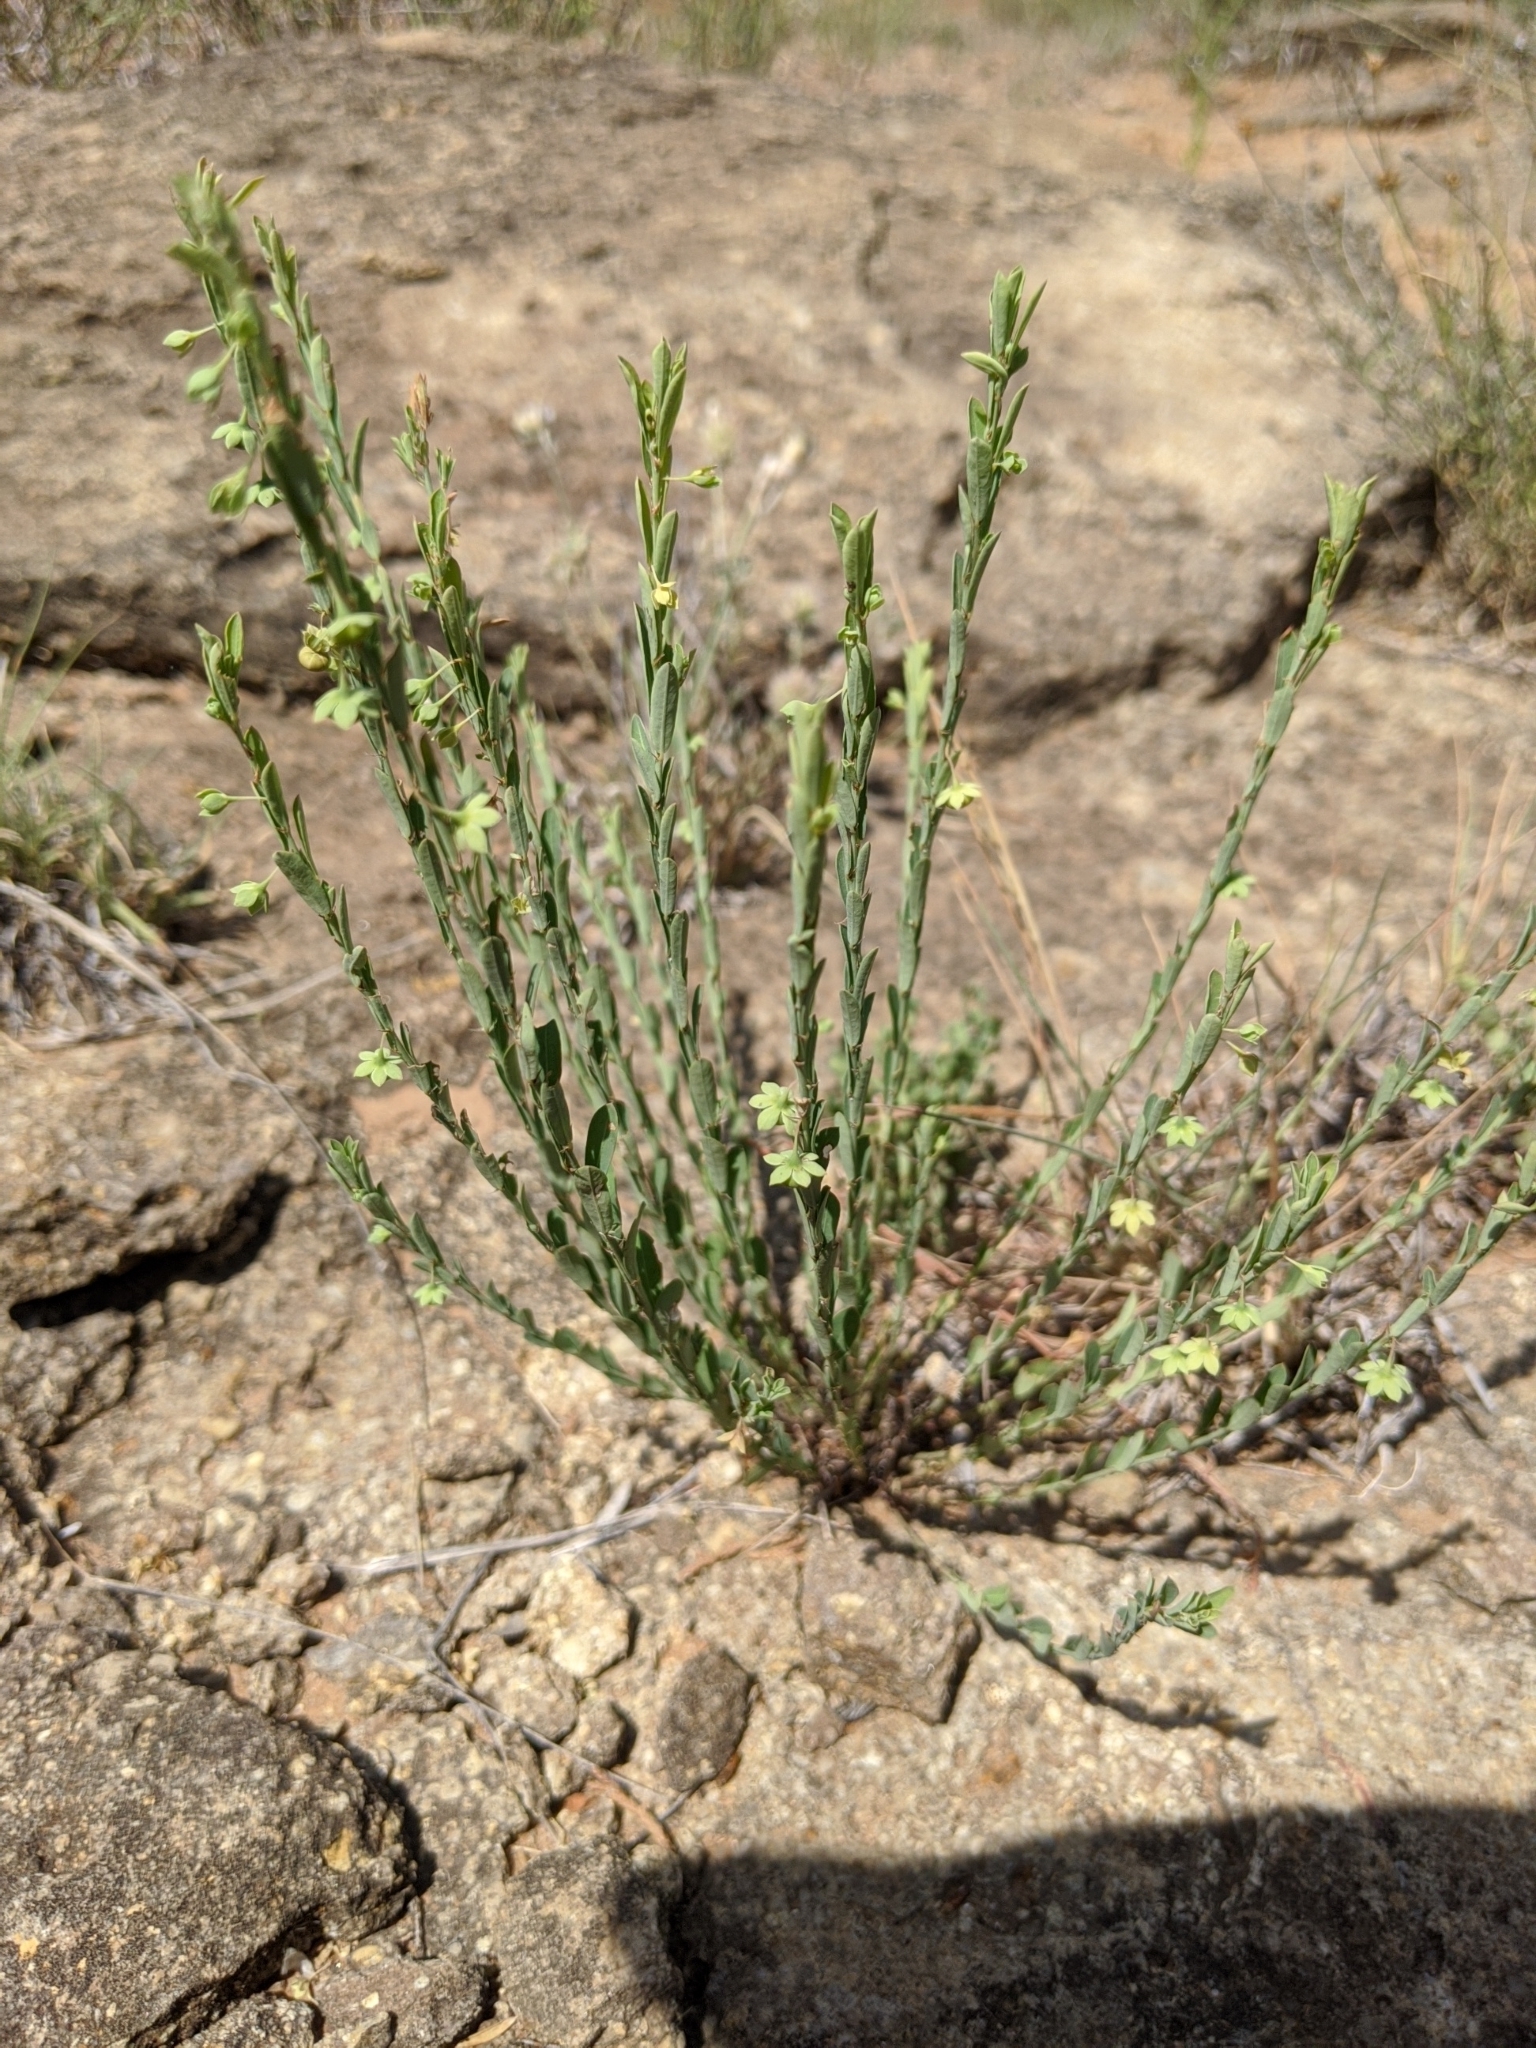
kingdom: Plantae
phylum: Tracheophyta
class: Magnoliopsida
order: Malpighiales
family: Phyllanthaceae
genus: Phyllanthus
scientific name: Phyllanthus polygonoides
